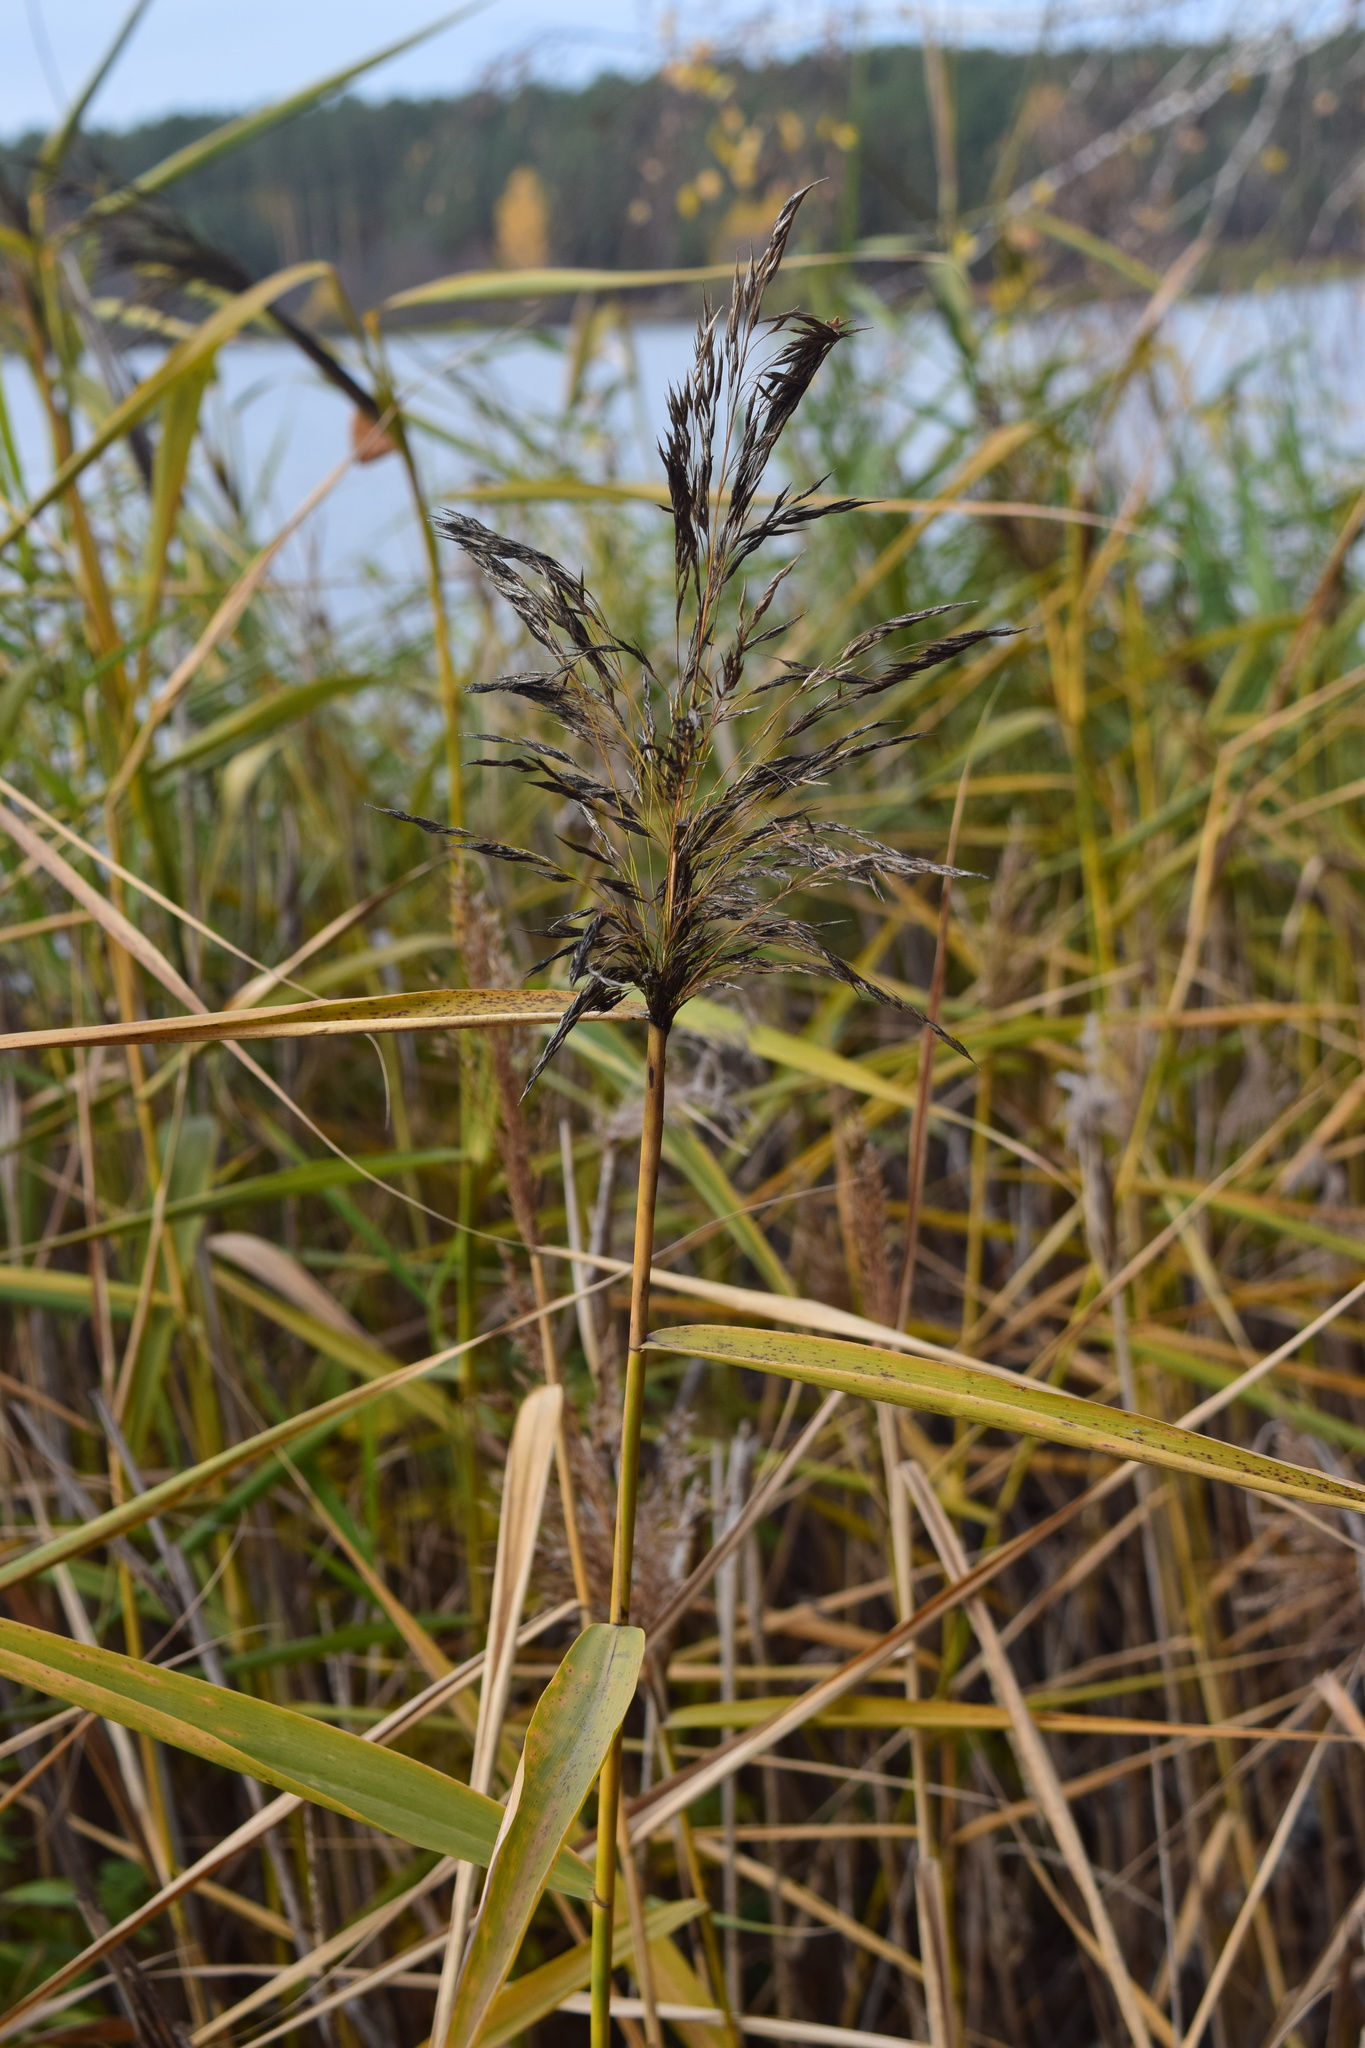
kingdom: Plantae
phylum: Tracheophyta
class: Liliopsida
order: Poales
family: Poaceae
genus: Phragmites
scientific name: Phragmites australis
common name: Common reed
